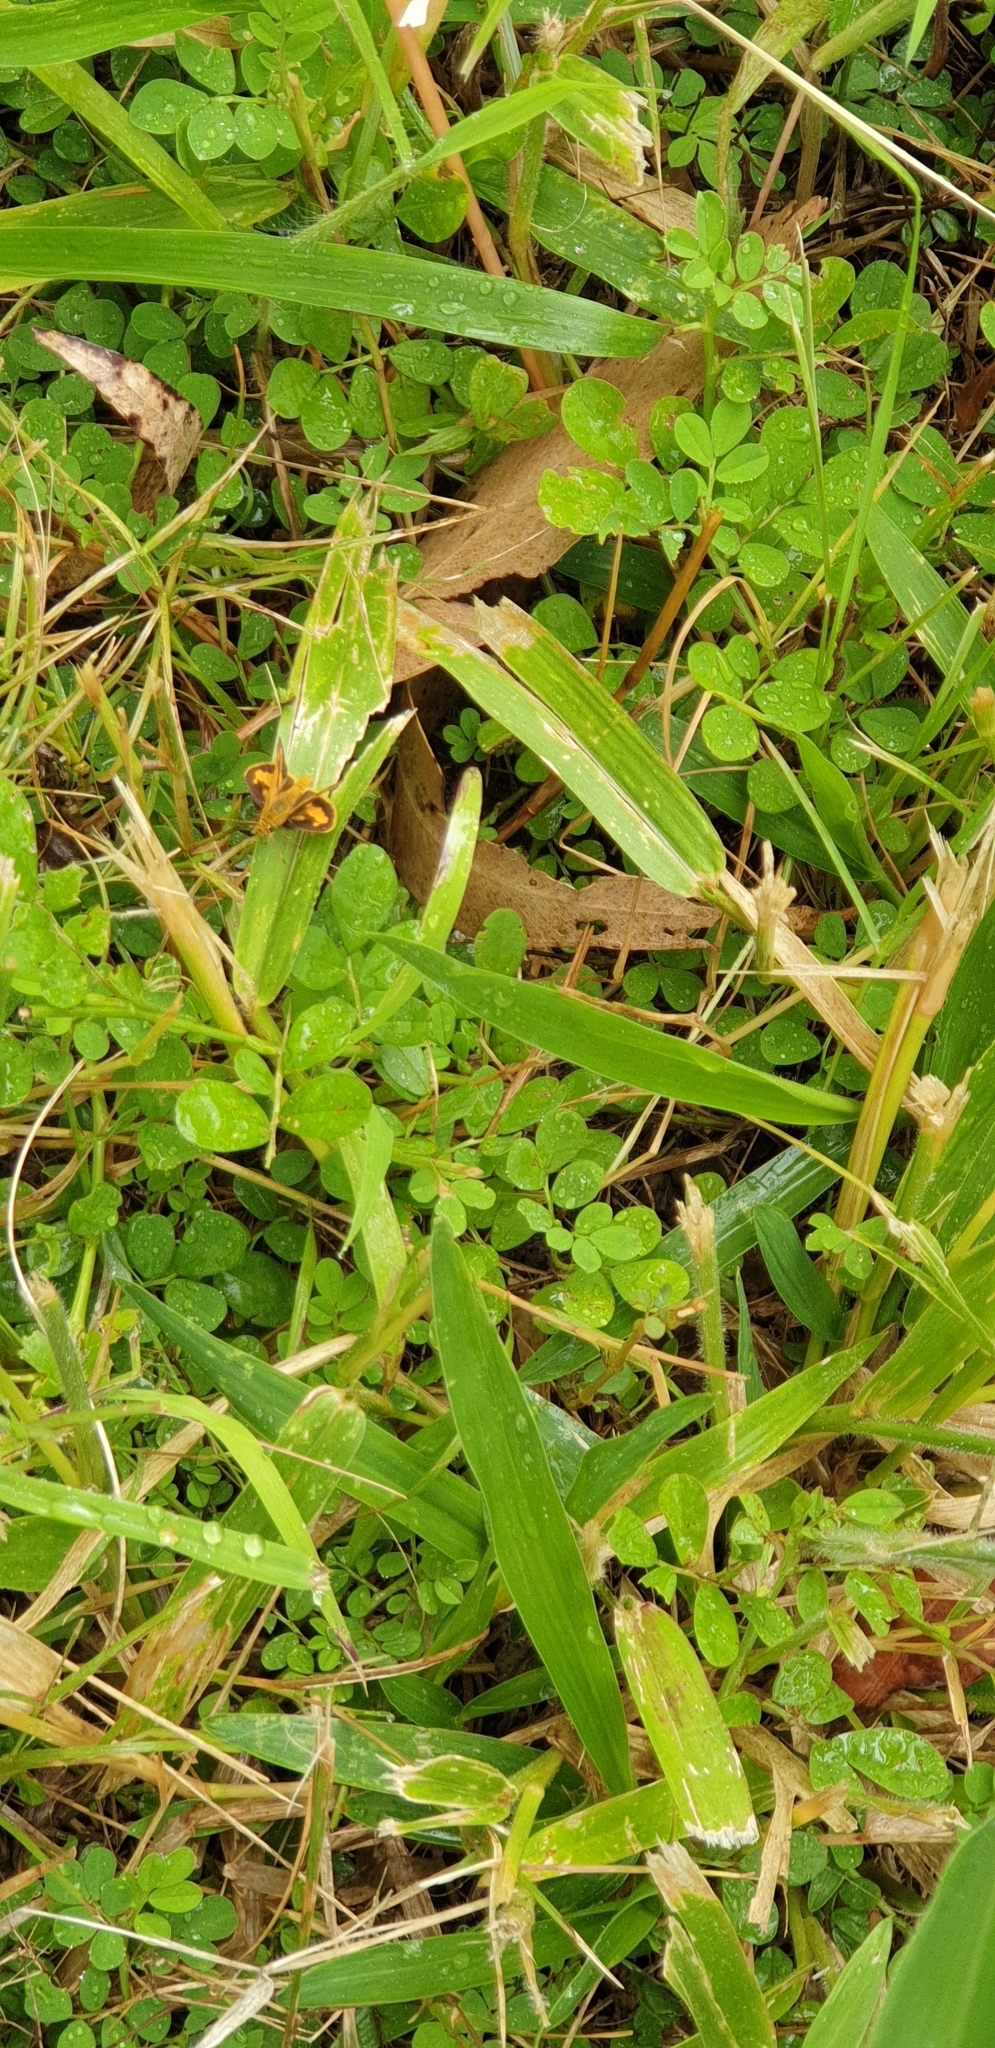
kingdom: Animalia
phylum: Arthropoda
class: Insecta
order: Lepidoptera
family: Hesperiidae
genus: Suniana
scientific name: Suniana sunias
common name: Wide-brand grass-dart
